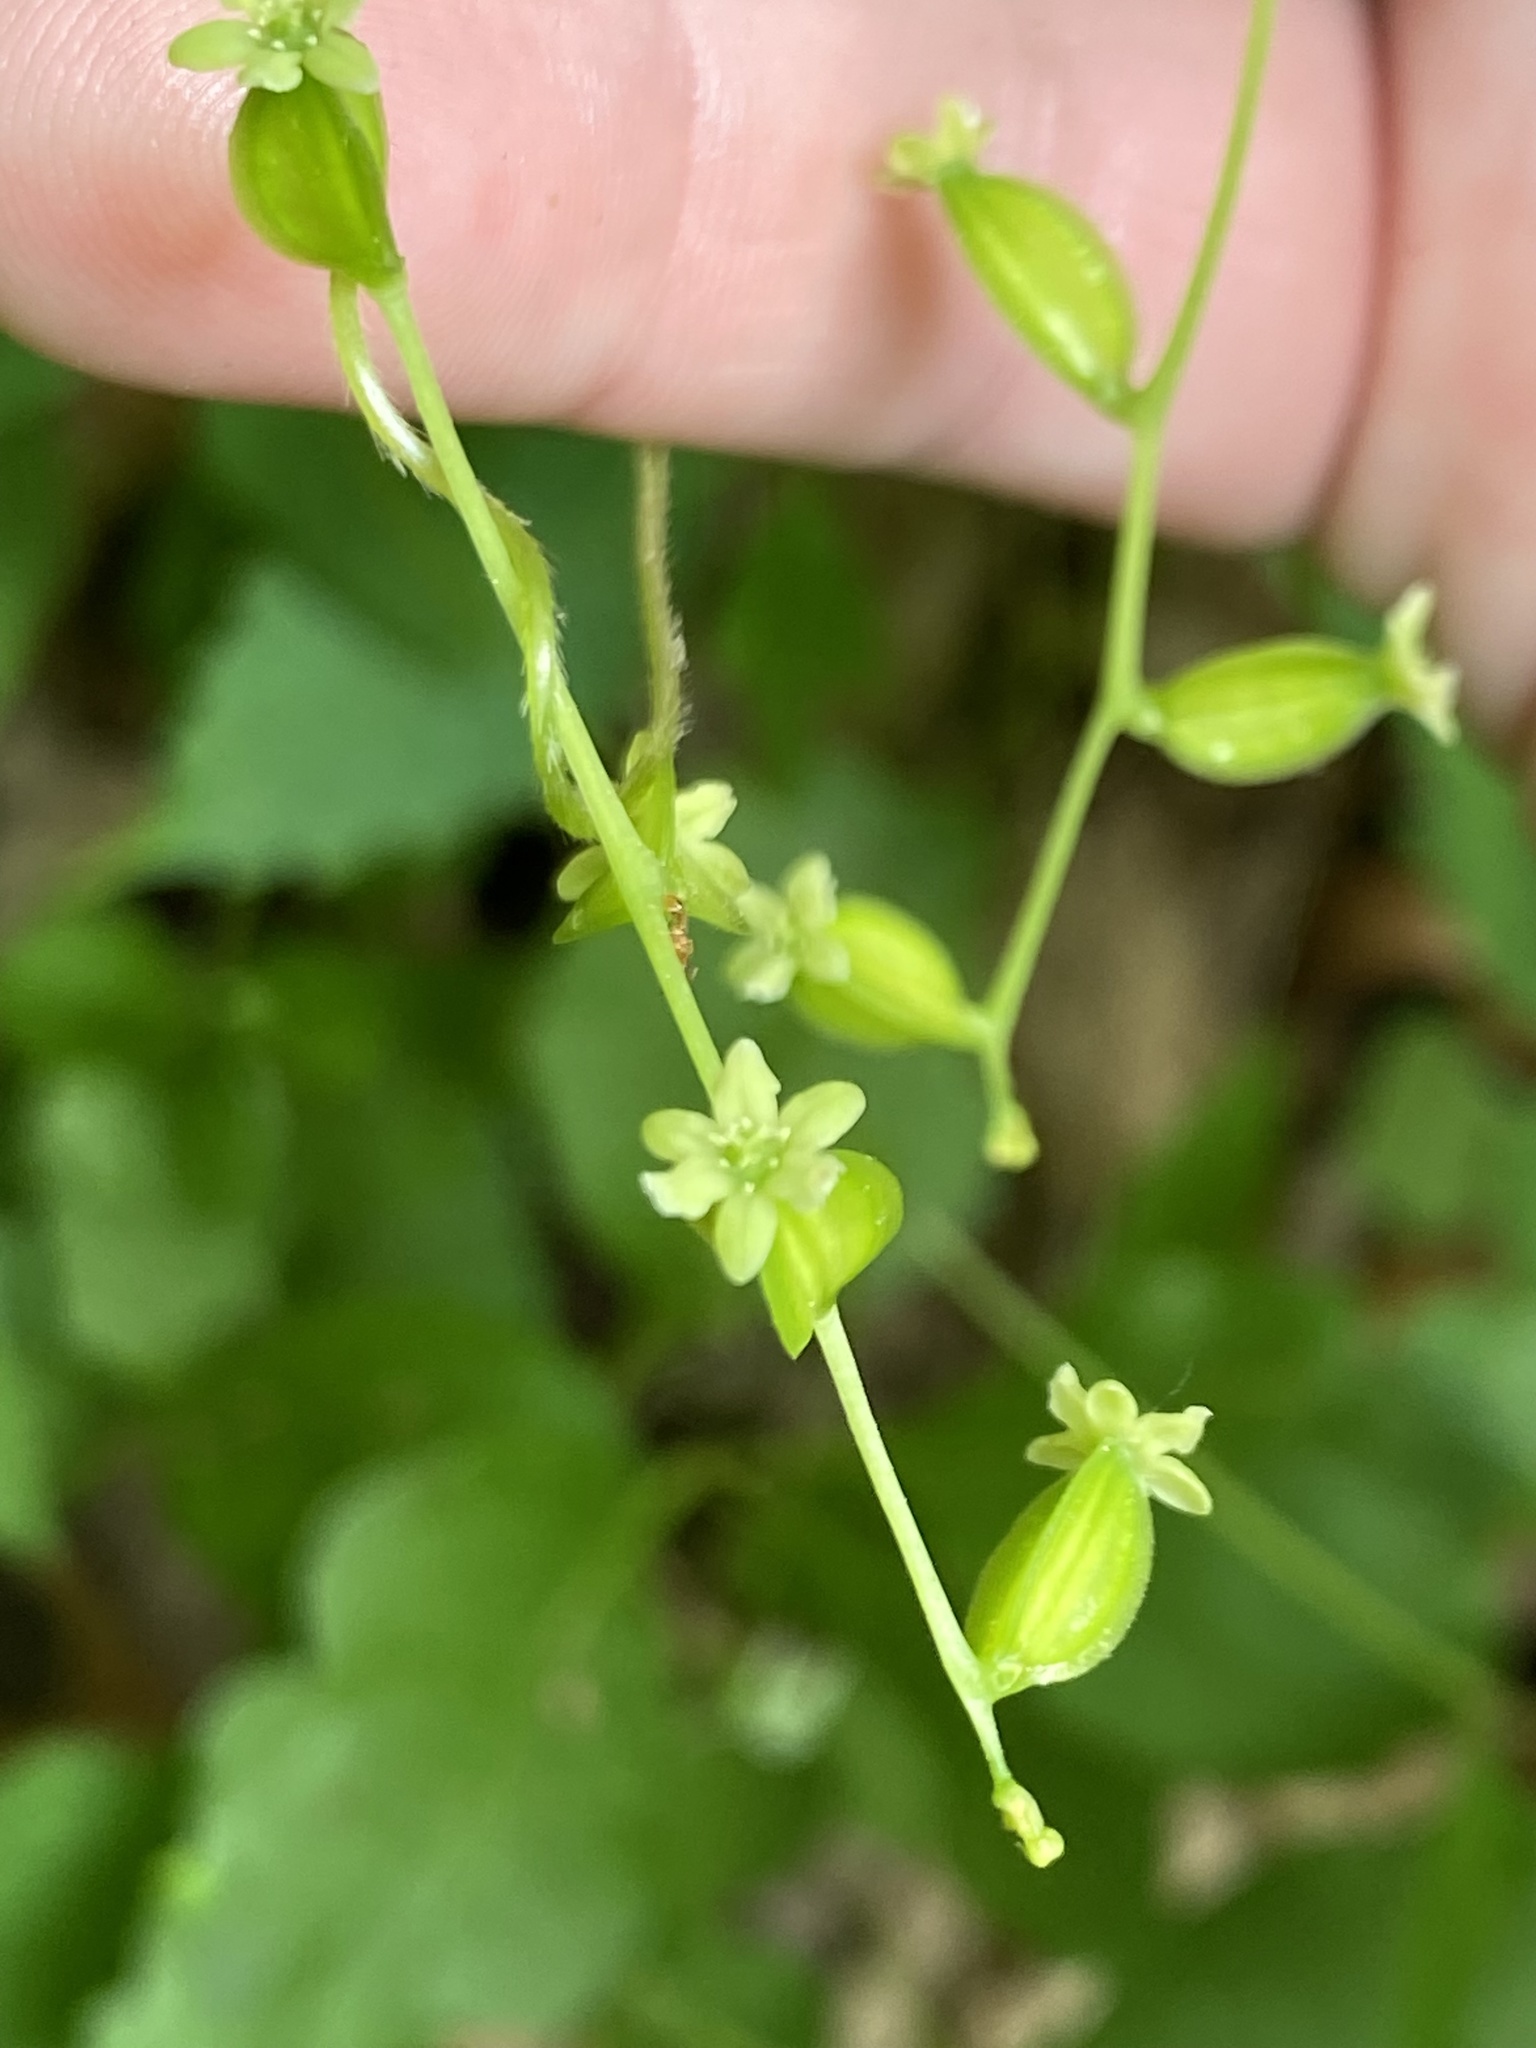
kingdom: Plantae
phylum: Tracheophyta
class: Liliopsida
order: Dioscoreales
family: Dioscoreaceae
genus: Dioscorea
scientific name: Dioscorea villosa
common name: Wild yam
